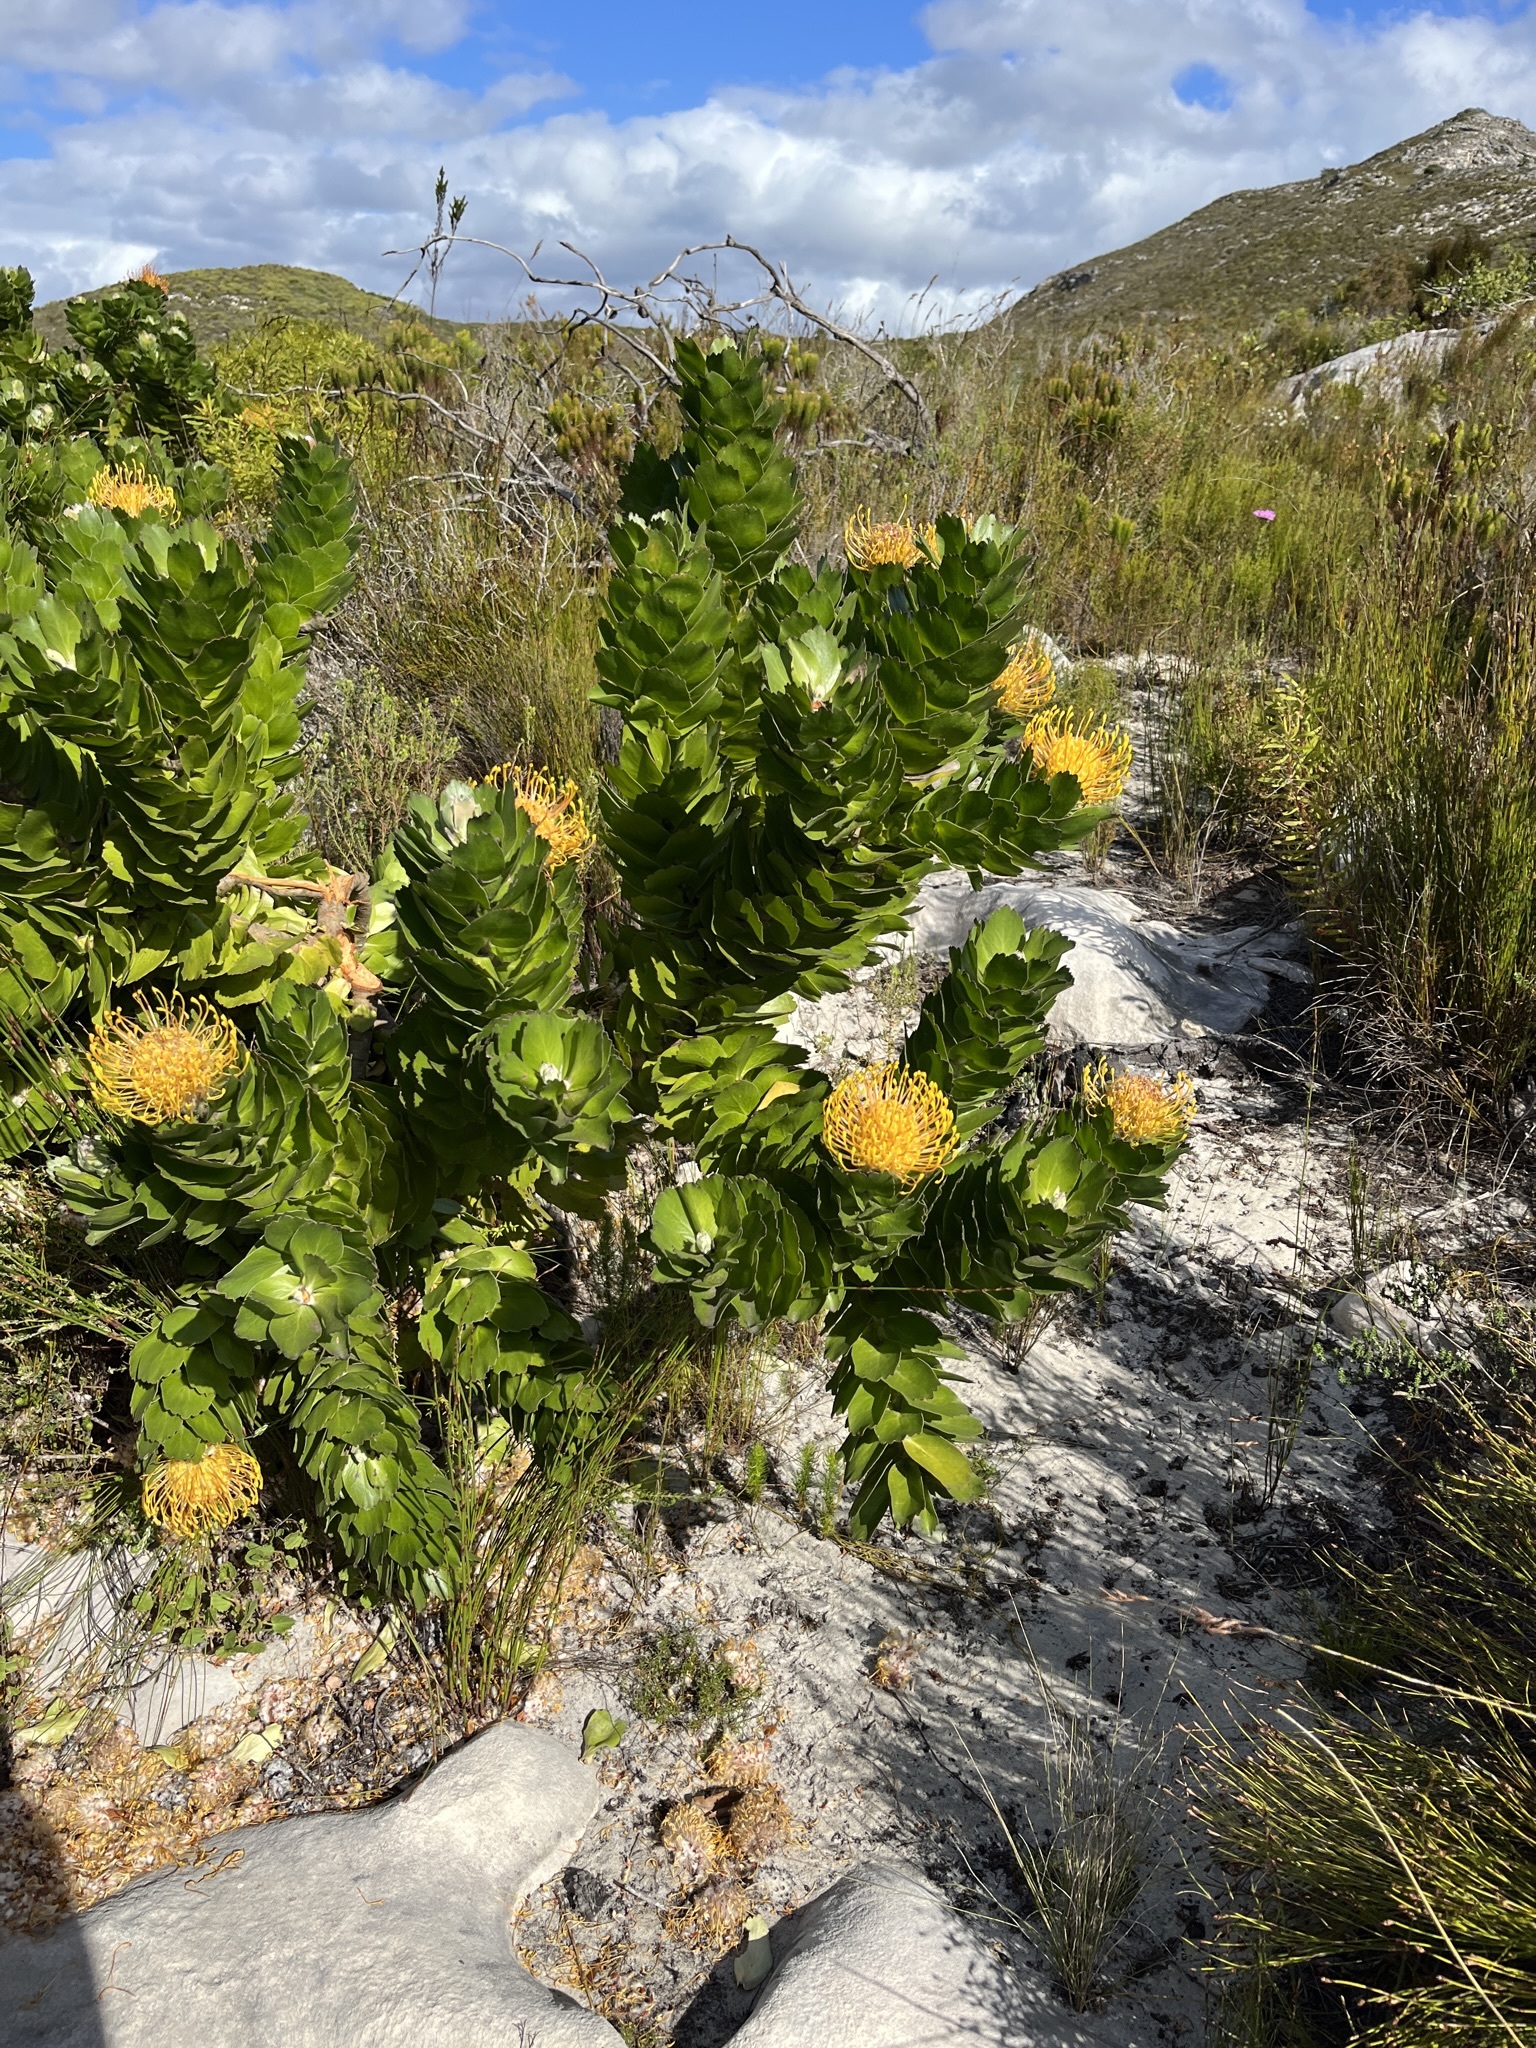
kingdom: Plantae
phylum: Tracheophyta
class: Magnoliopsida
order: Proteales
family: Proteaceae
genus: Leucospermum
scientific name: Leucospermum patersonii
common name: False tree pincushion
